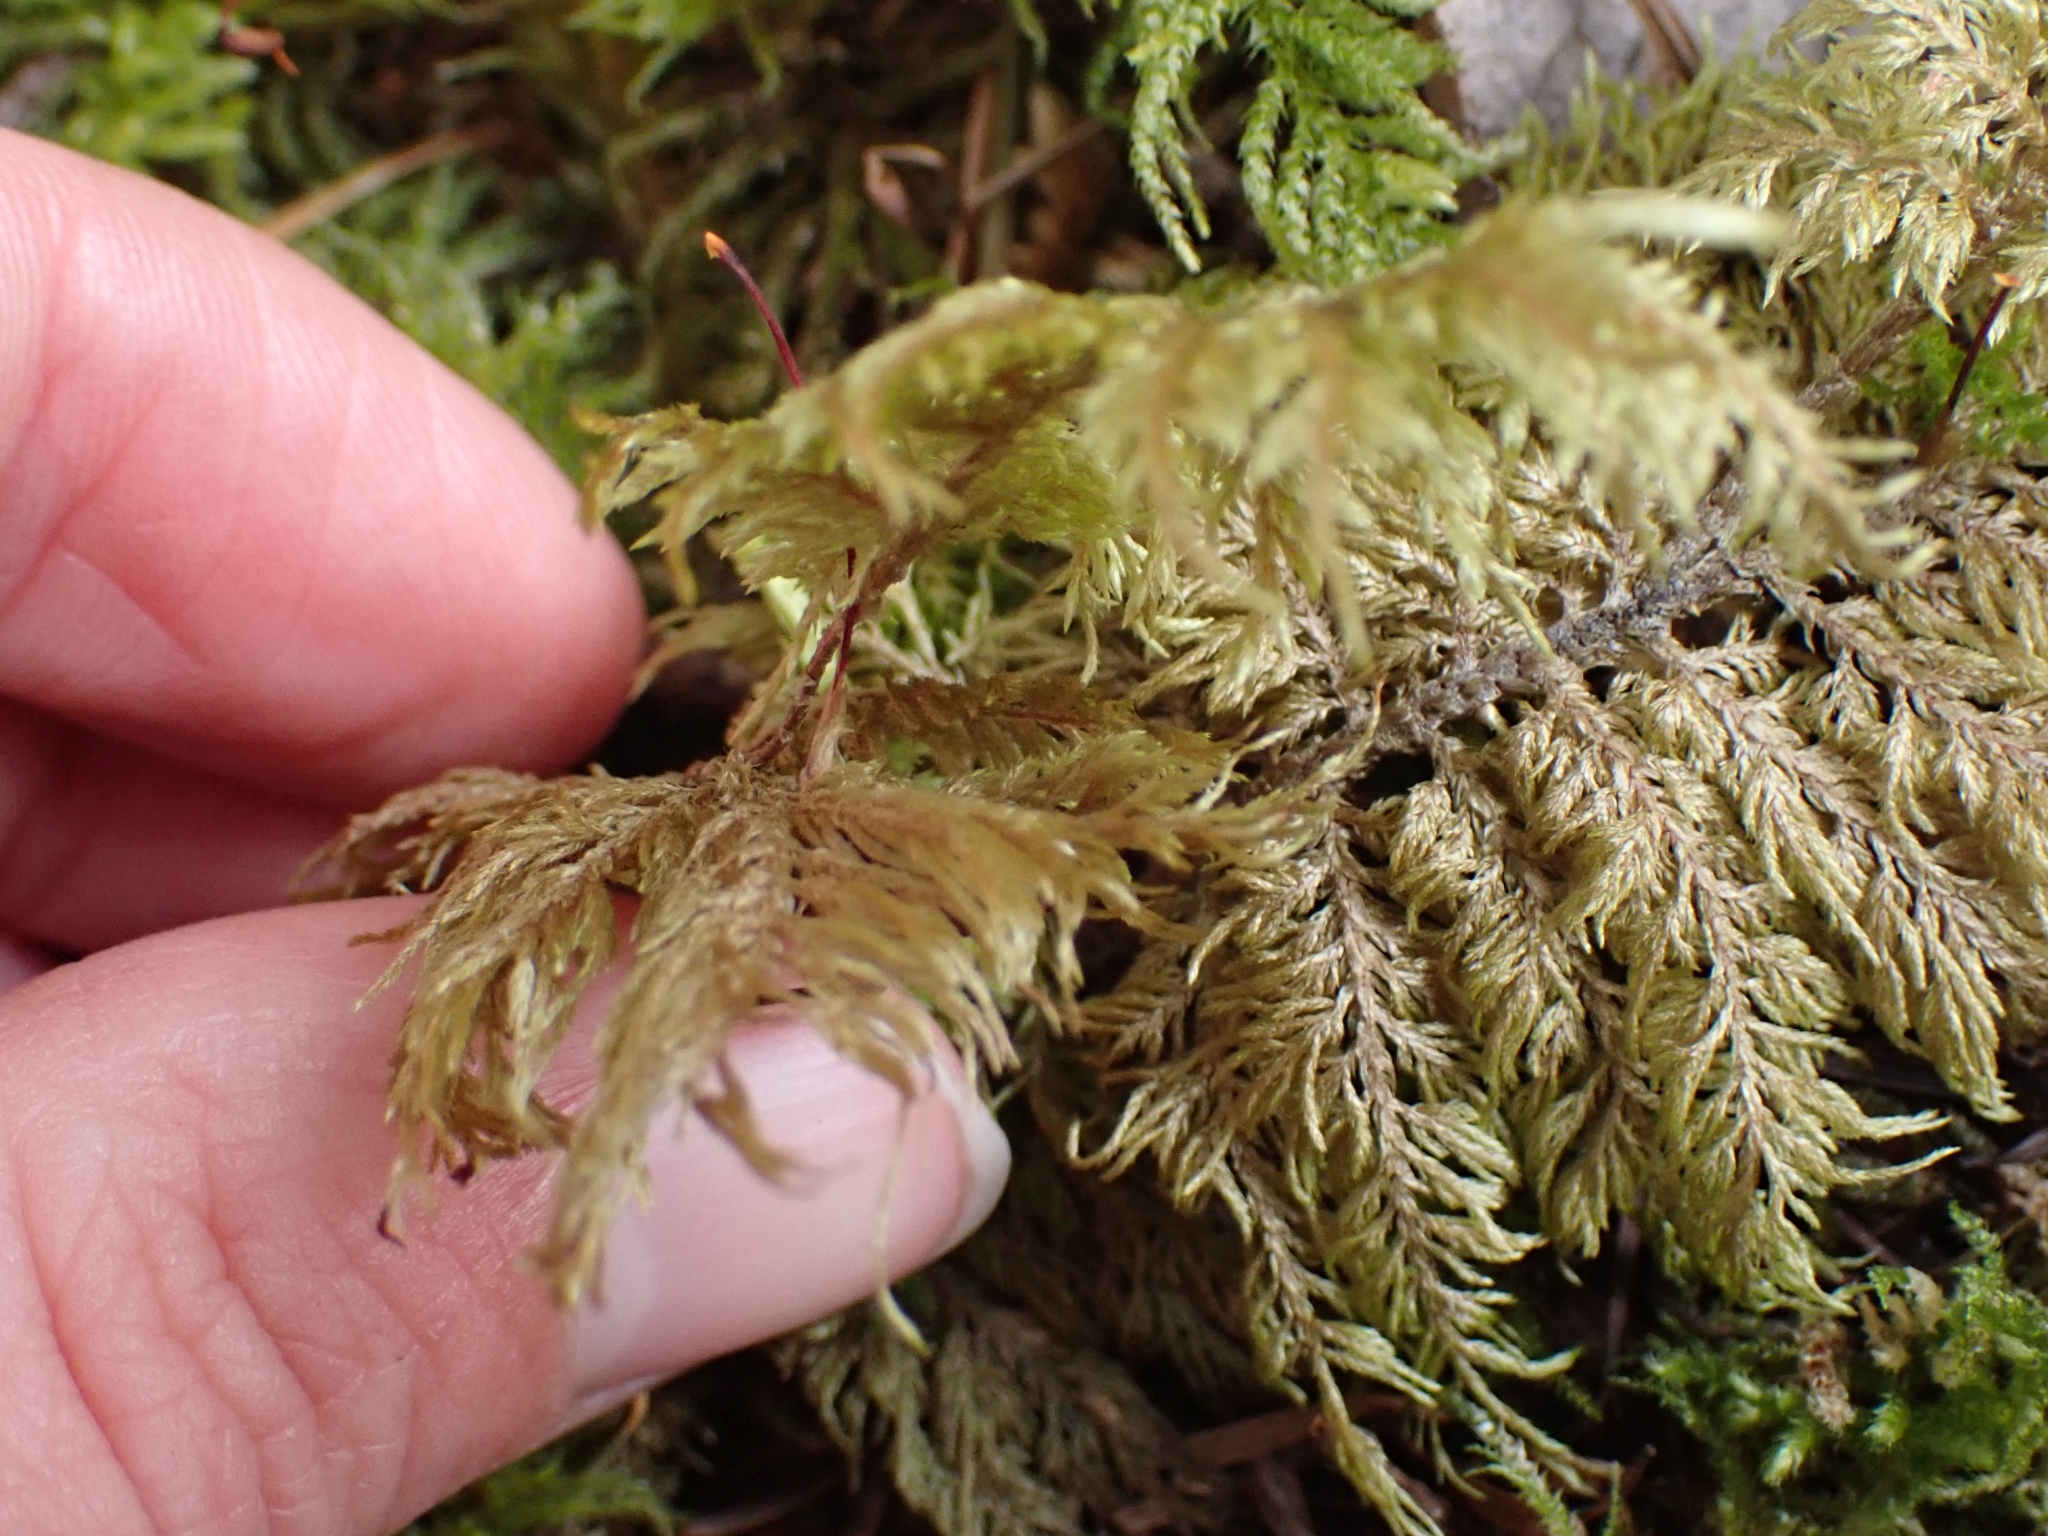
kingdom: Plantae
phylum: Bryophyta
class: Bryopsida
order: Hypnales
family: Hylocomiaceae
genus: Hylocomium
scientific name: Hylocomium splendens
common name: Stairstep moss
